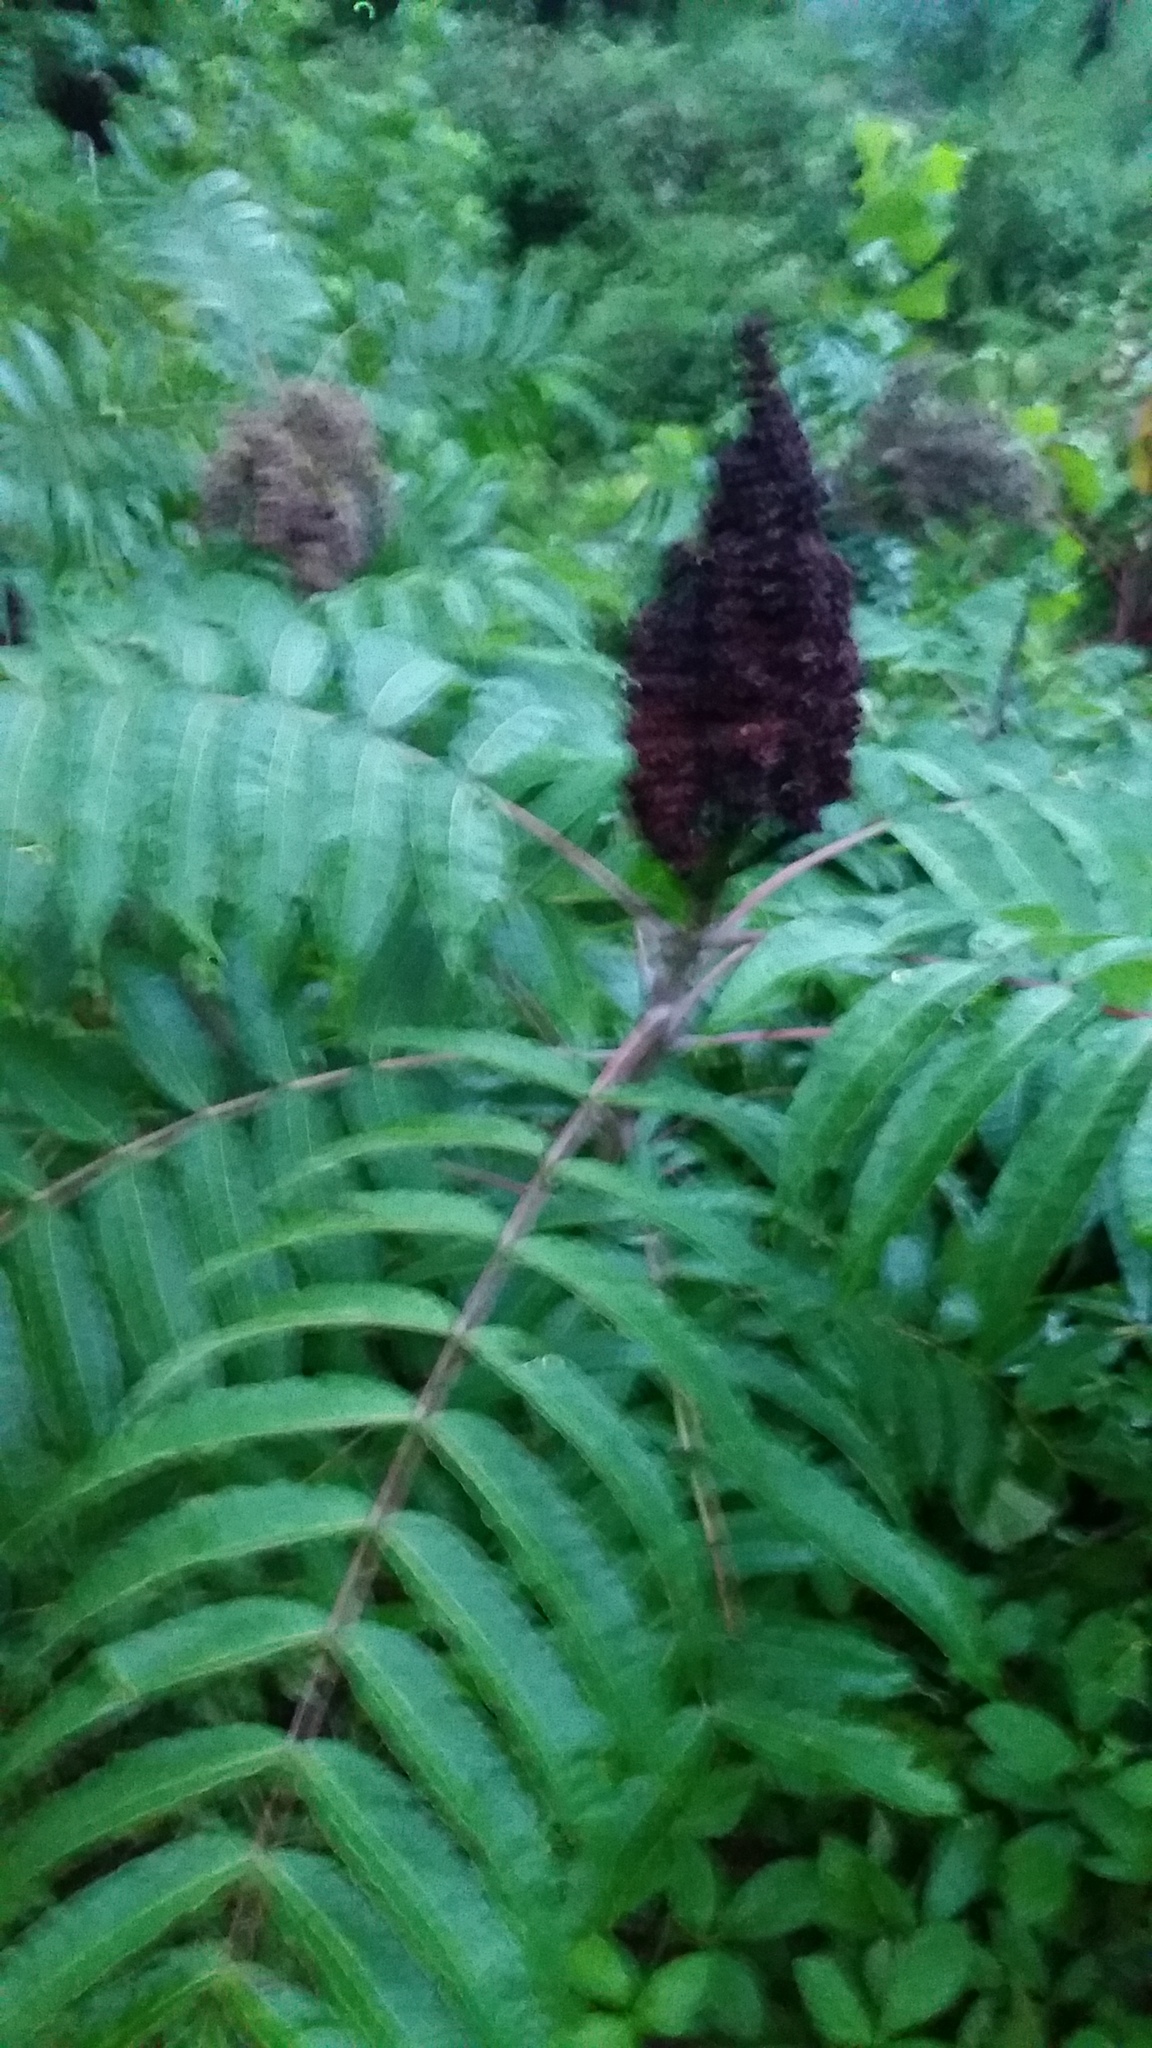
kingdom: Plantae
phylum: Tracheophyta
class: Magnoliopsida
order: Sapindales
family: Anacardiaceae
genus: Rhus
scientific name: Rhus glabra
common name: Scarlet sumac
